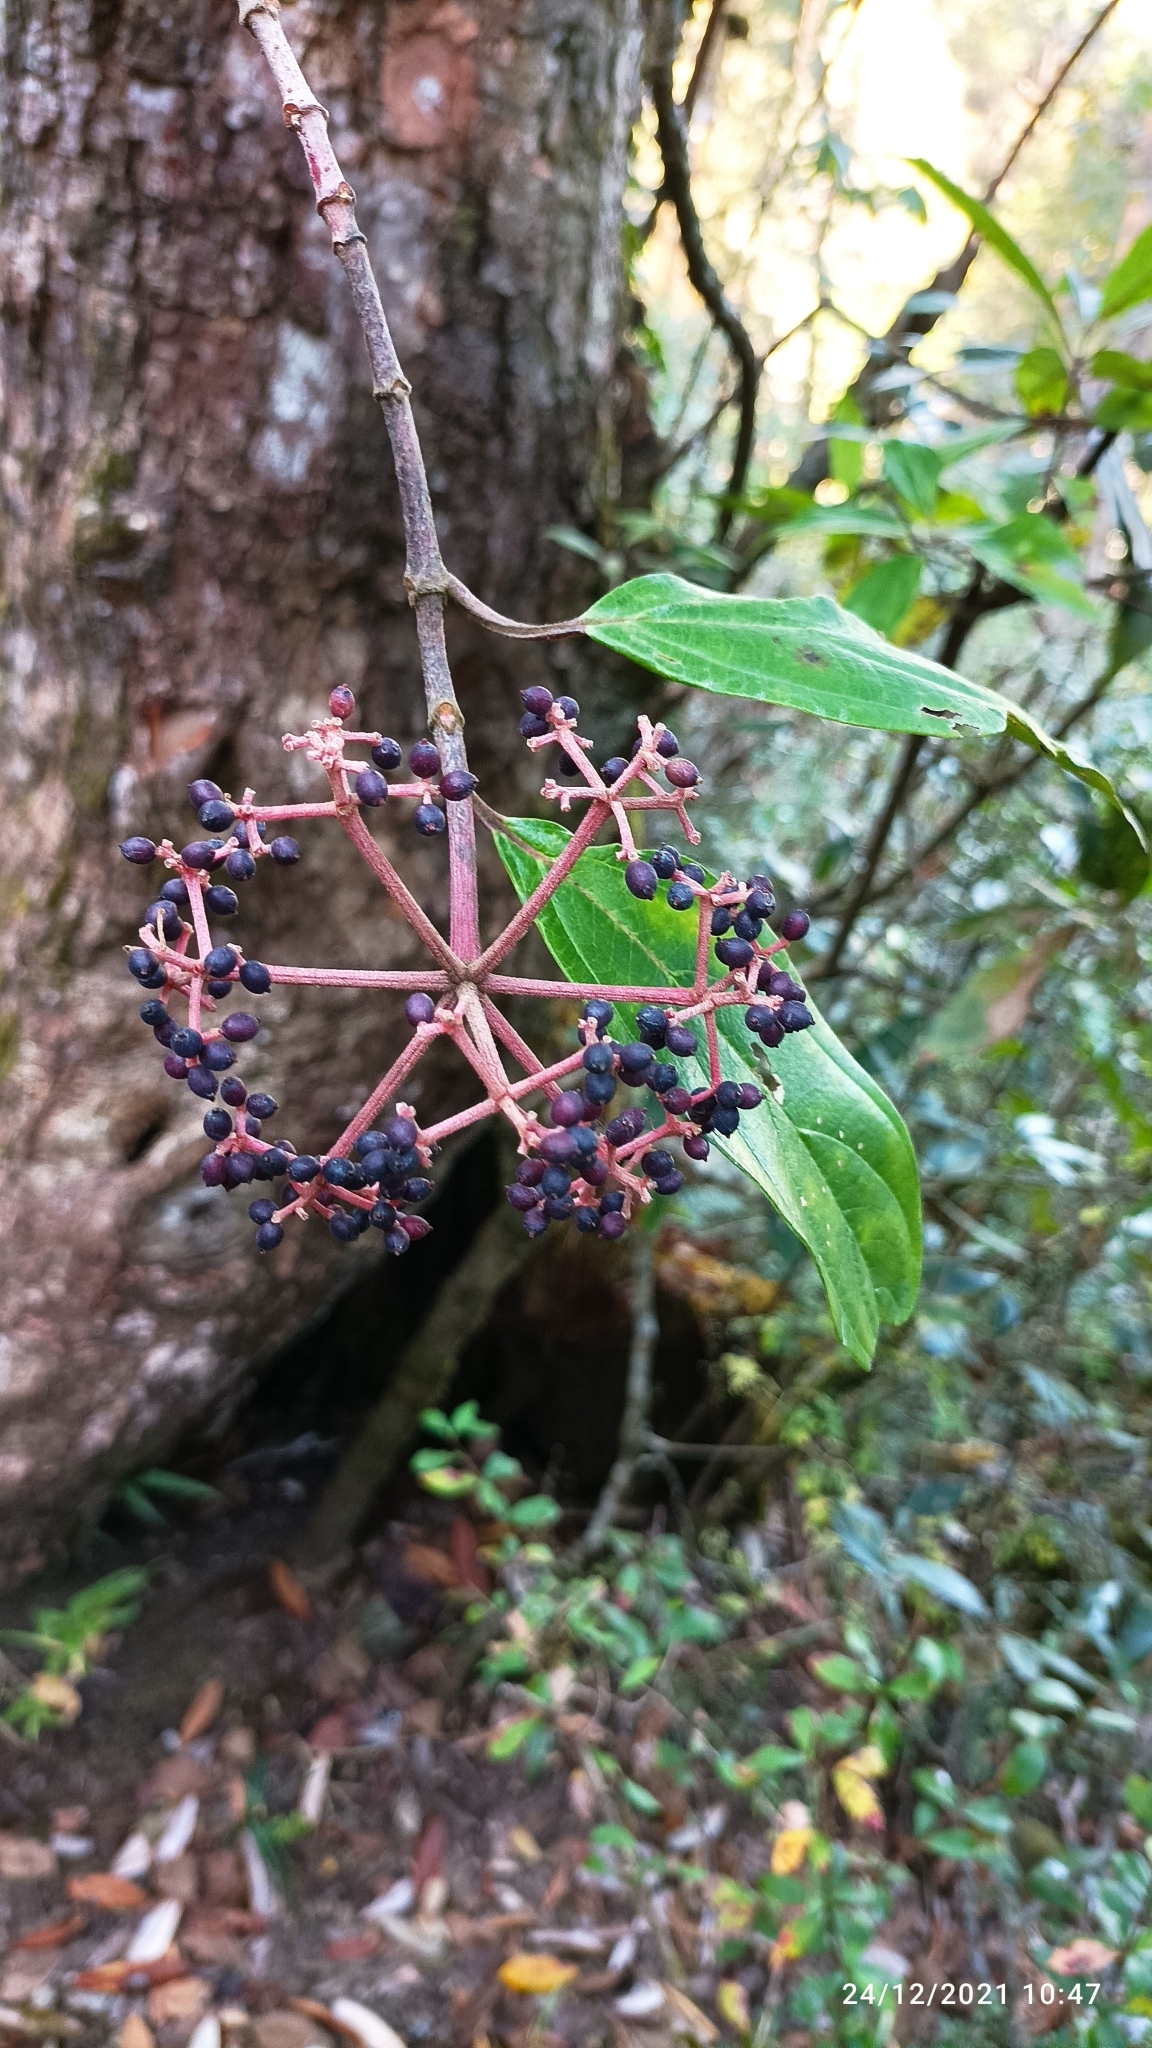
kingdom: Plantae
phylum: Tracheophyta
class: Magnoliopsida
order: Dipsacales
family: Viburnaceae
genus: Viburnum
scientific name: Viburnum cylindricum
